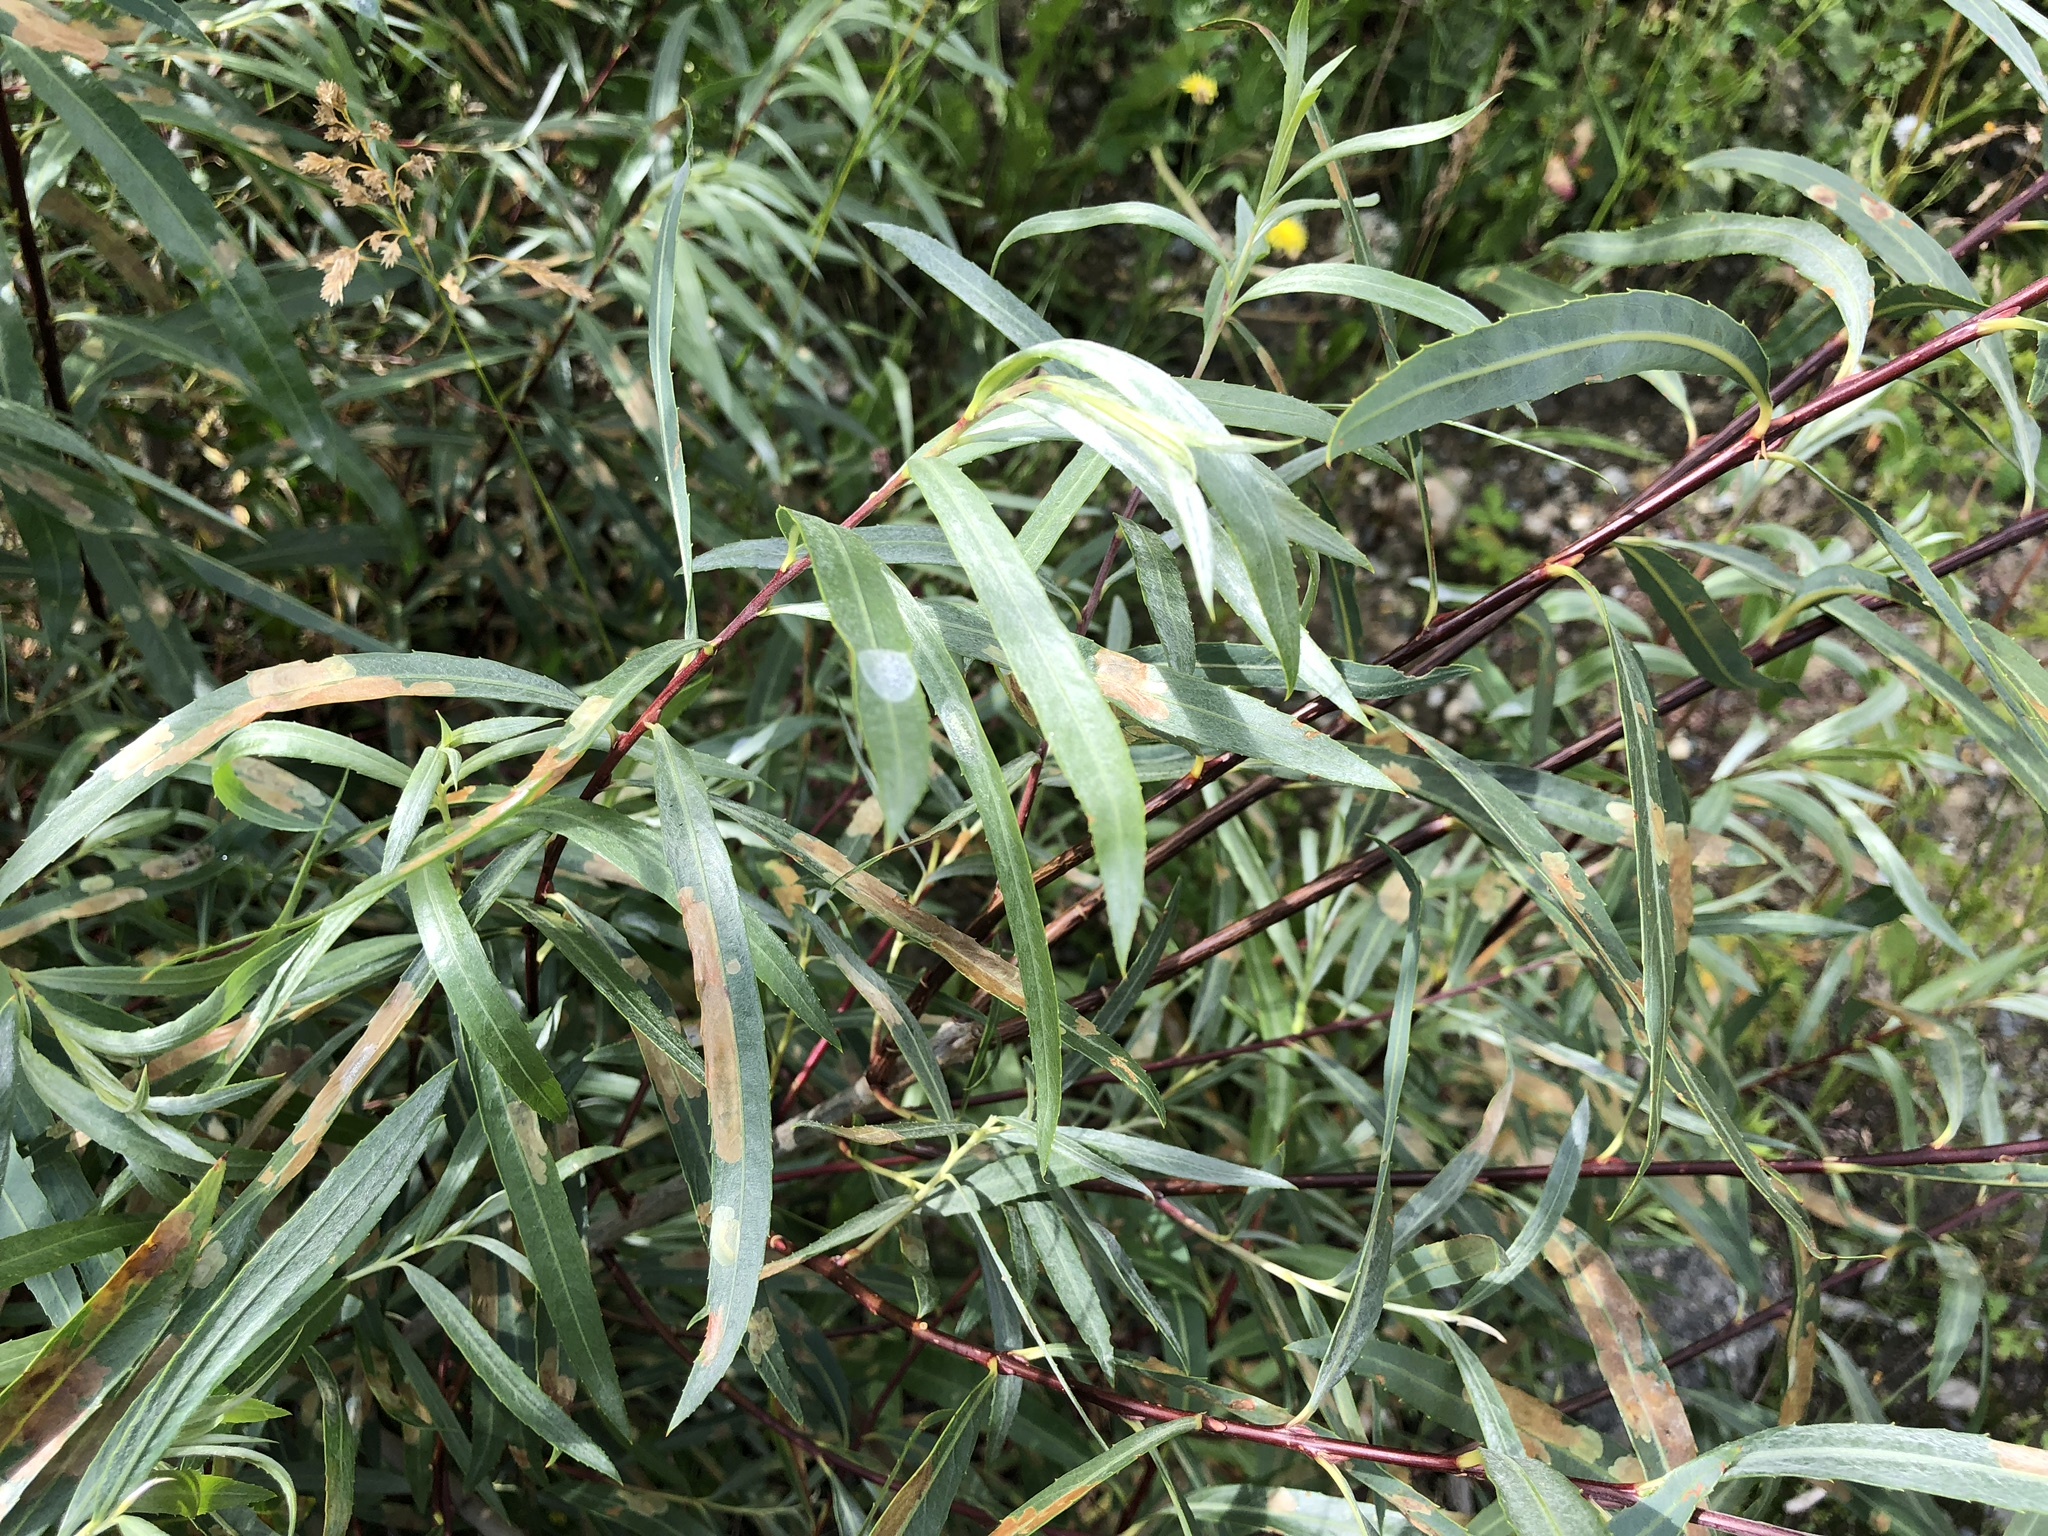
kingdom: Plantae
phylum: Tracheophyta
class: Magnoliopsida
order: Malpighiales
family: Salicaceae
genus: Salix
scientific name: Salix interior
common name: Sandbar willow
